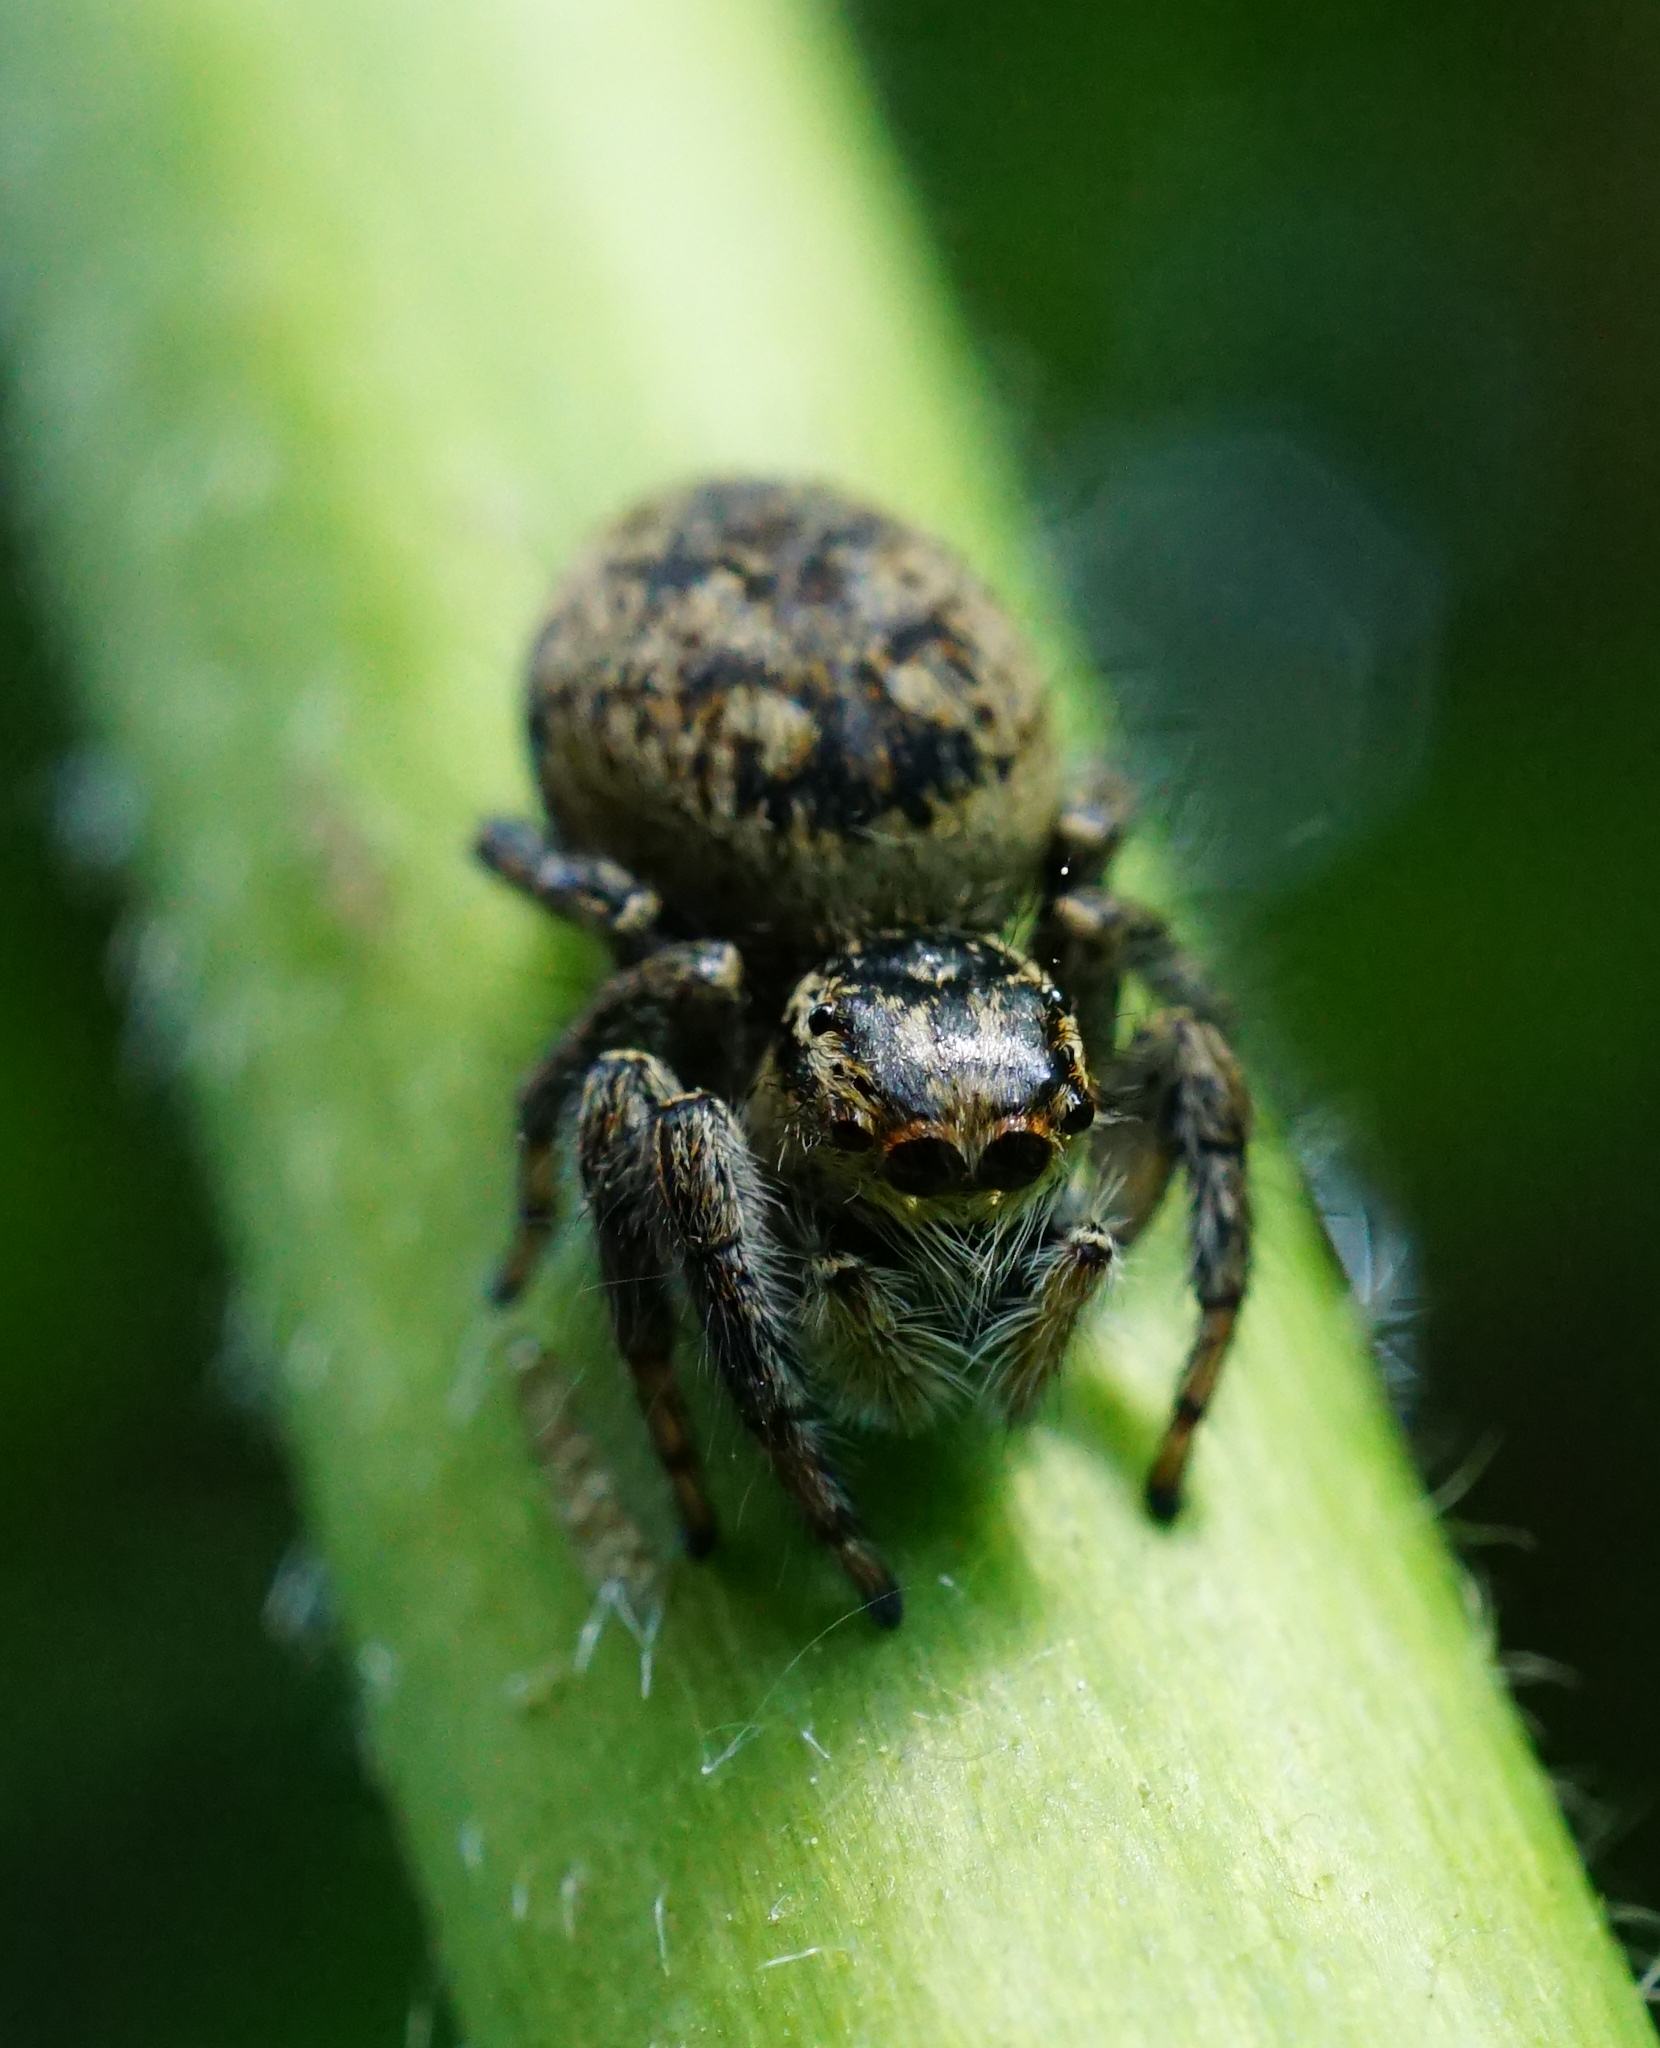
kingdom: Animalia
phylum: Arthropoda
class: Arachnida
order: Araneae
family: Salticidae
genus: Carrhotus
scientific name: Carrhotus xanthogramma
